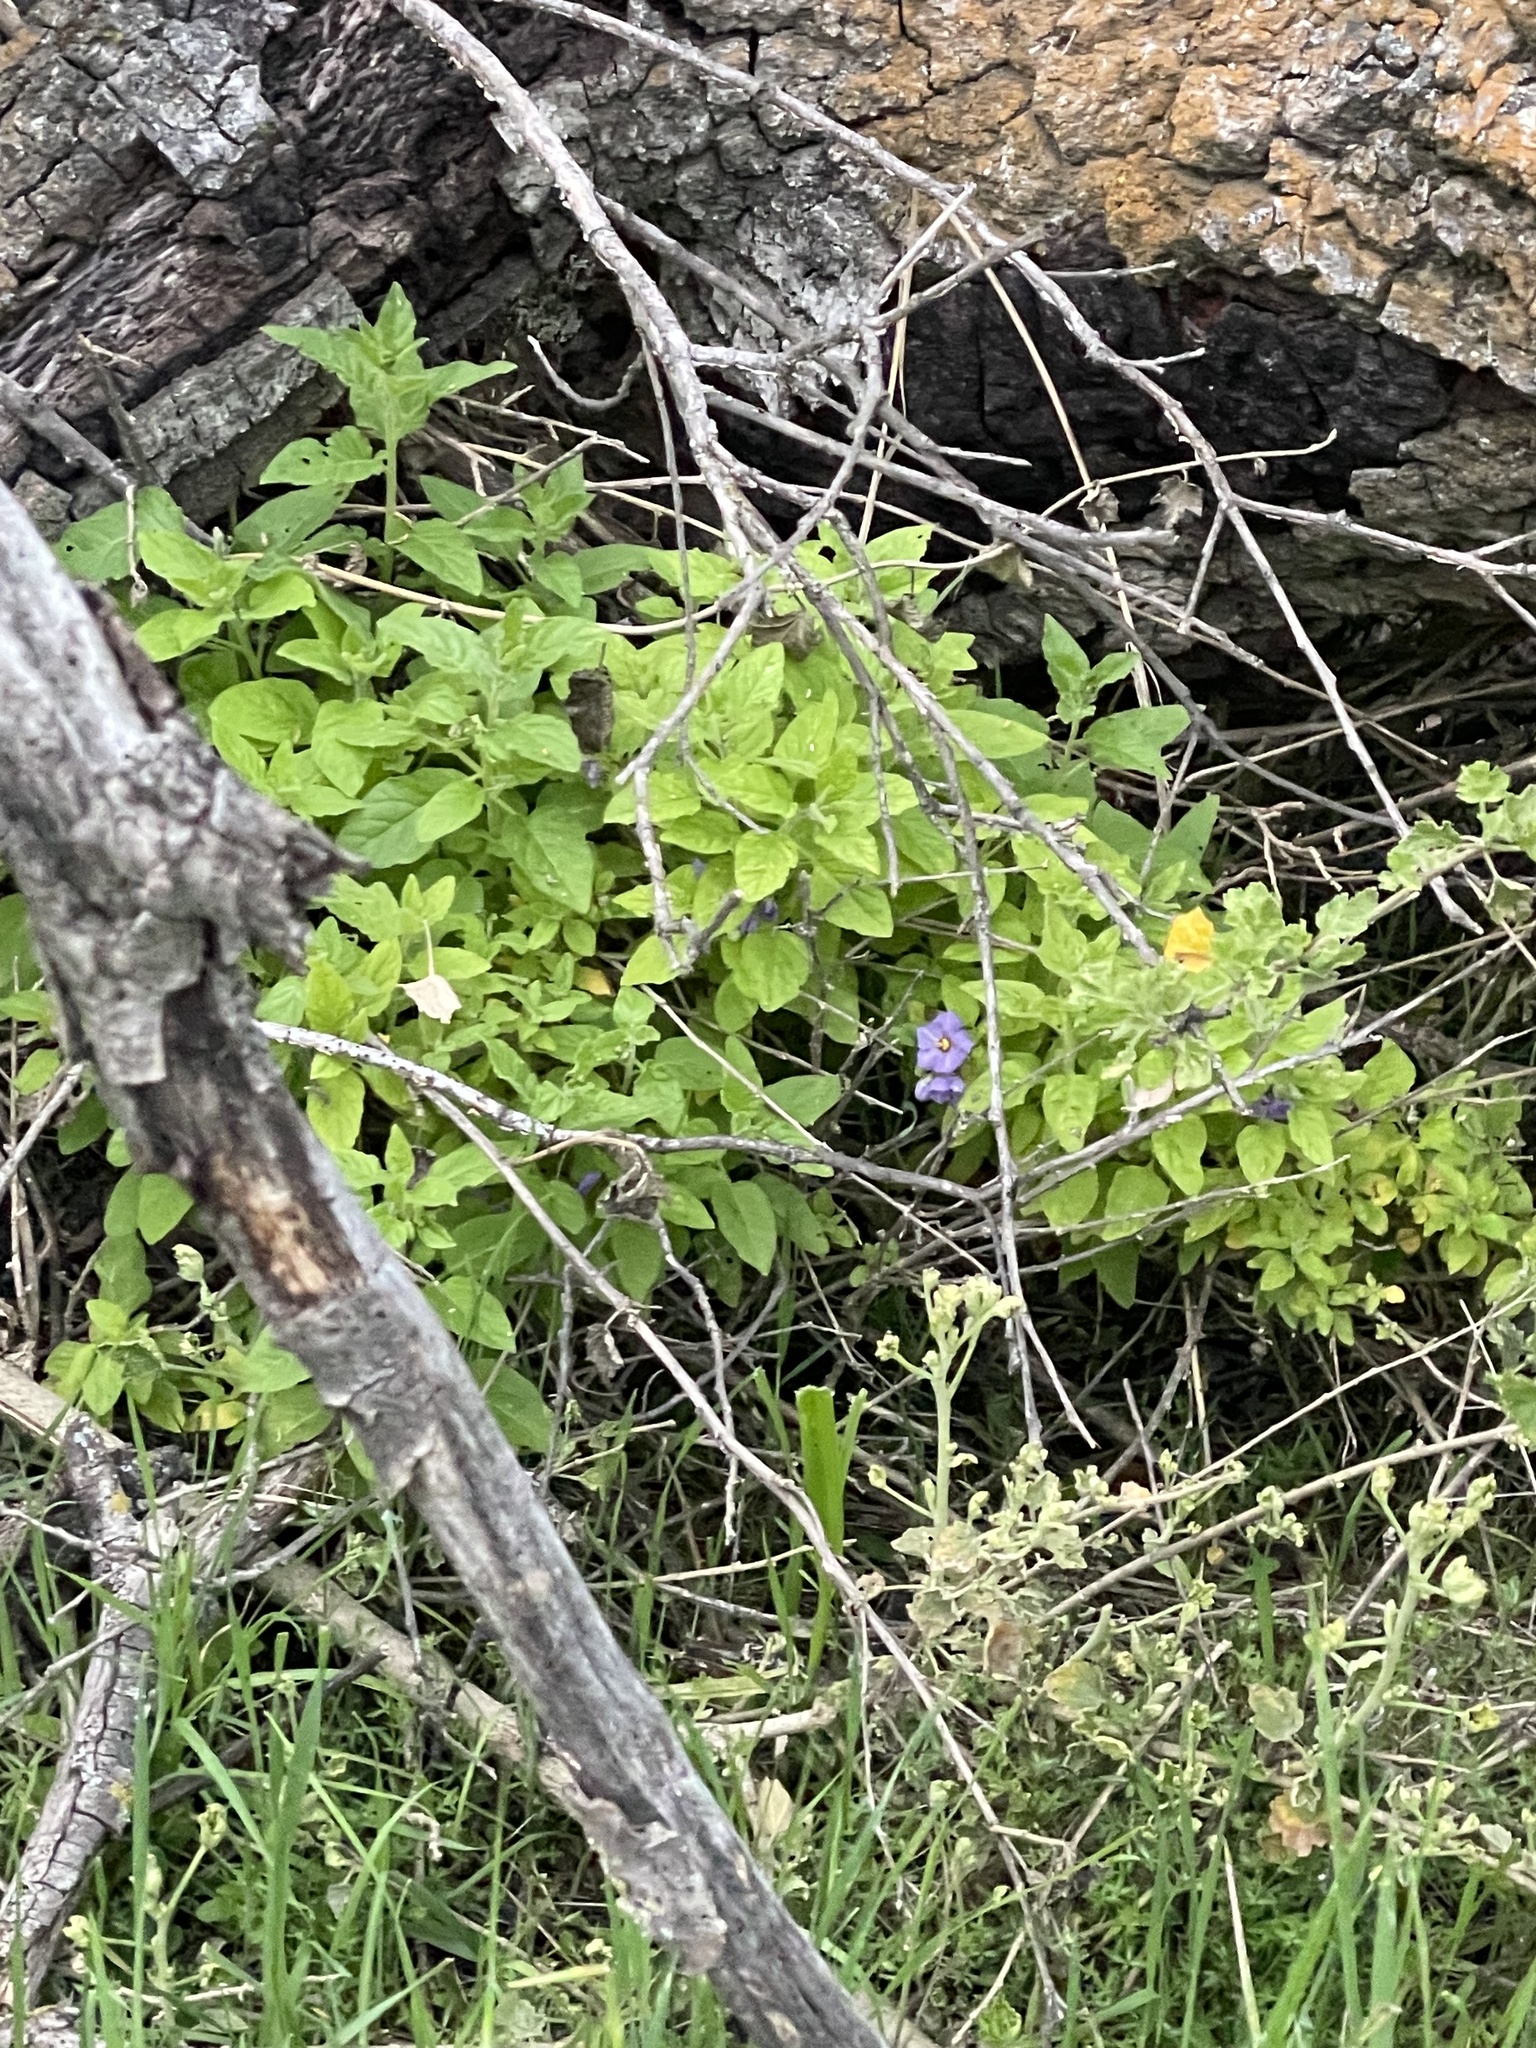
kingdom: Plantae
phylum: Tracheophyta
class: Magnoliopsida
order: Solanales
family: Solanaceae
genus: Solanum
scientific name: Solanum umbelliferum
